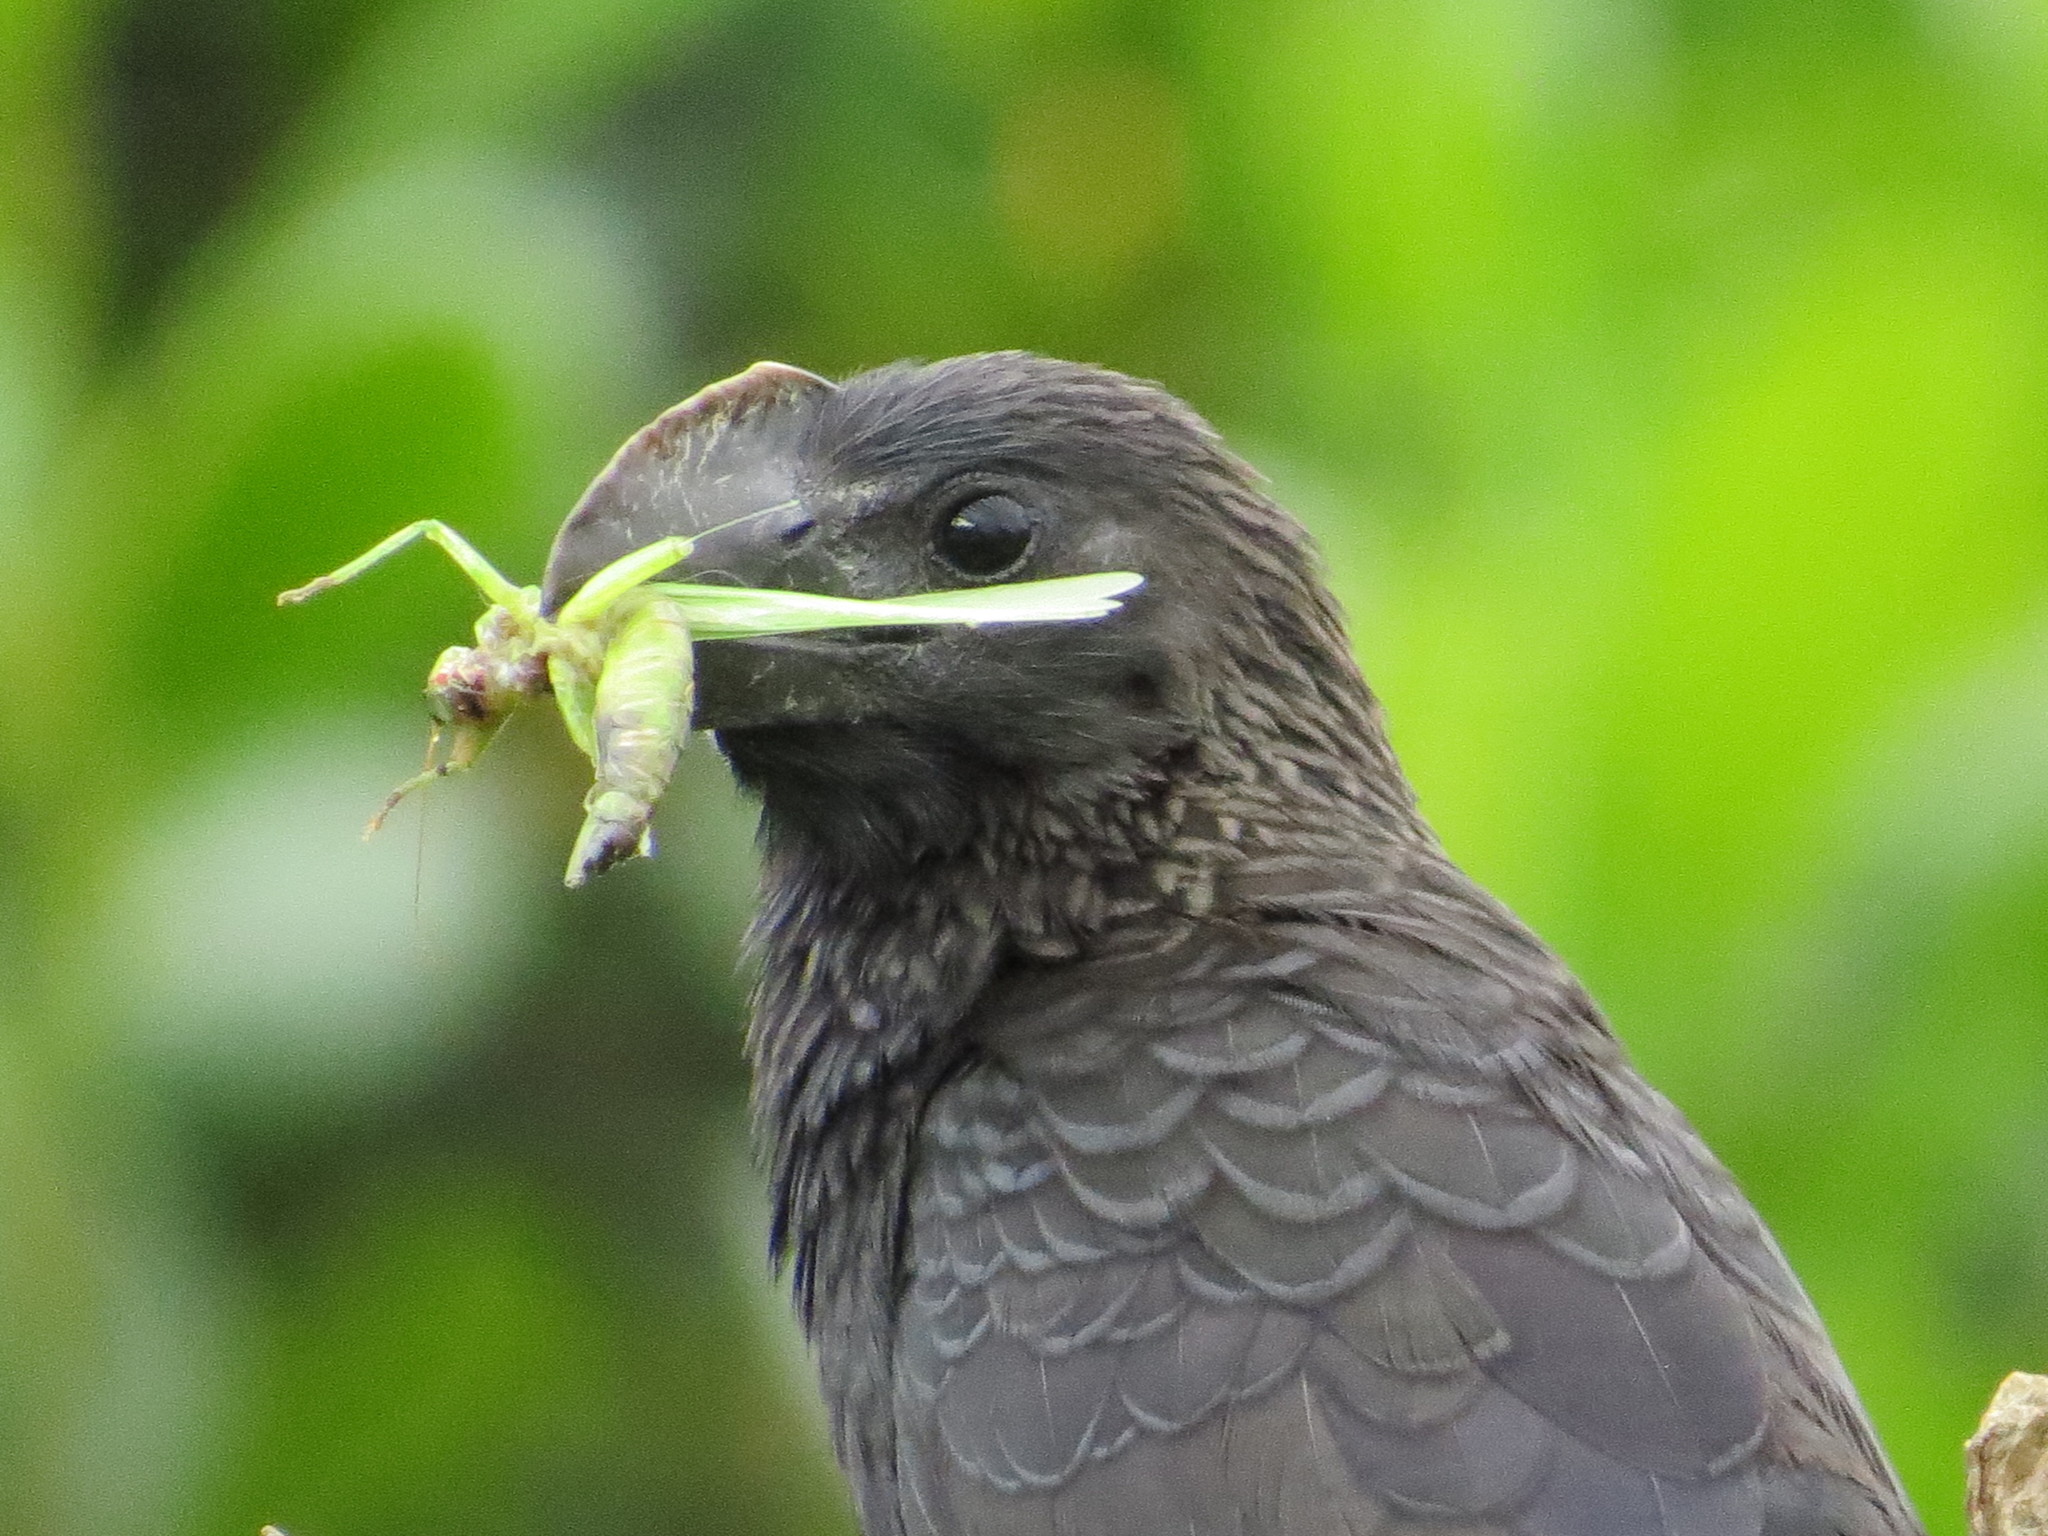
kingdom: Animalia
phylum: Chordata
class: Aves
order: Cuculiformes
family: Cuculidae
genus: Crotophaga
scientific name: Crotophaga ani
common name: Smooth-billed ani
